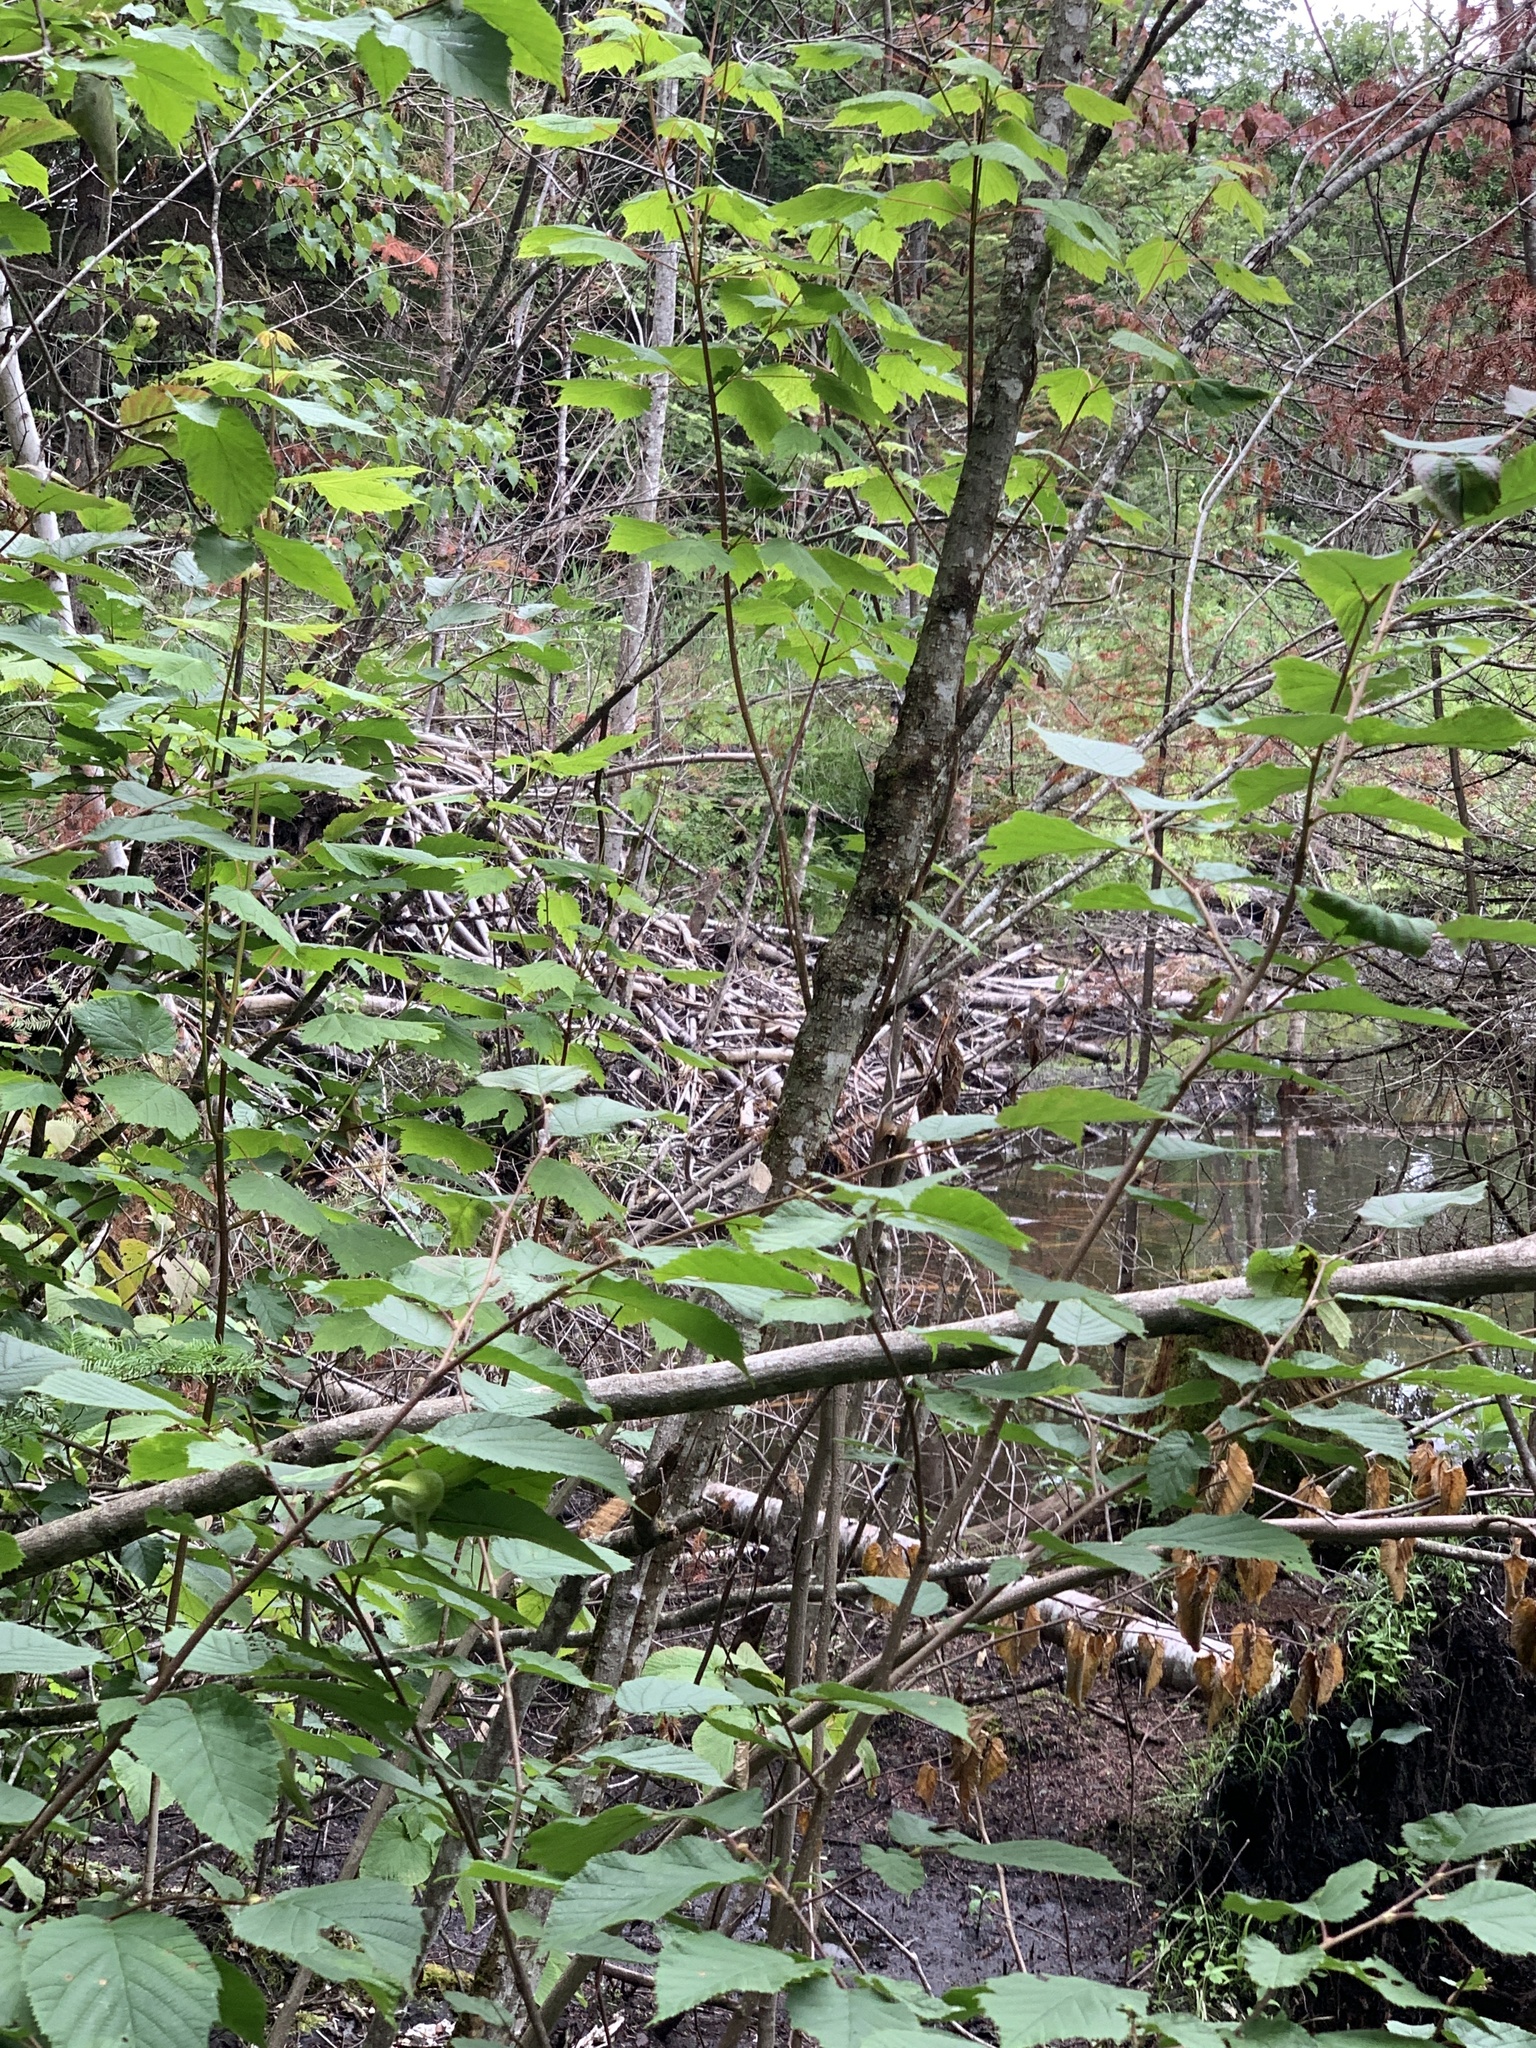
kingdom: Animalia
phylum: Chordata
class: Mammalia
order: Rodentia
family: Castoridae
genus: Castor
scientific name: Castor canadensis
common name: American beaver
